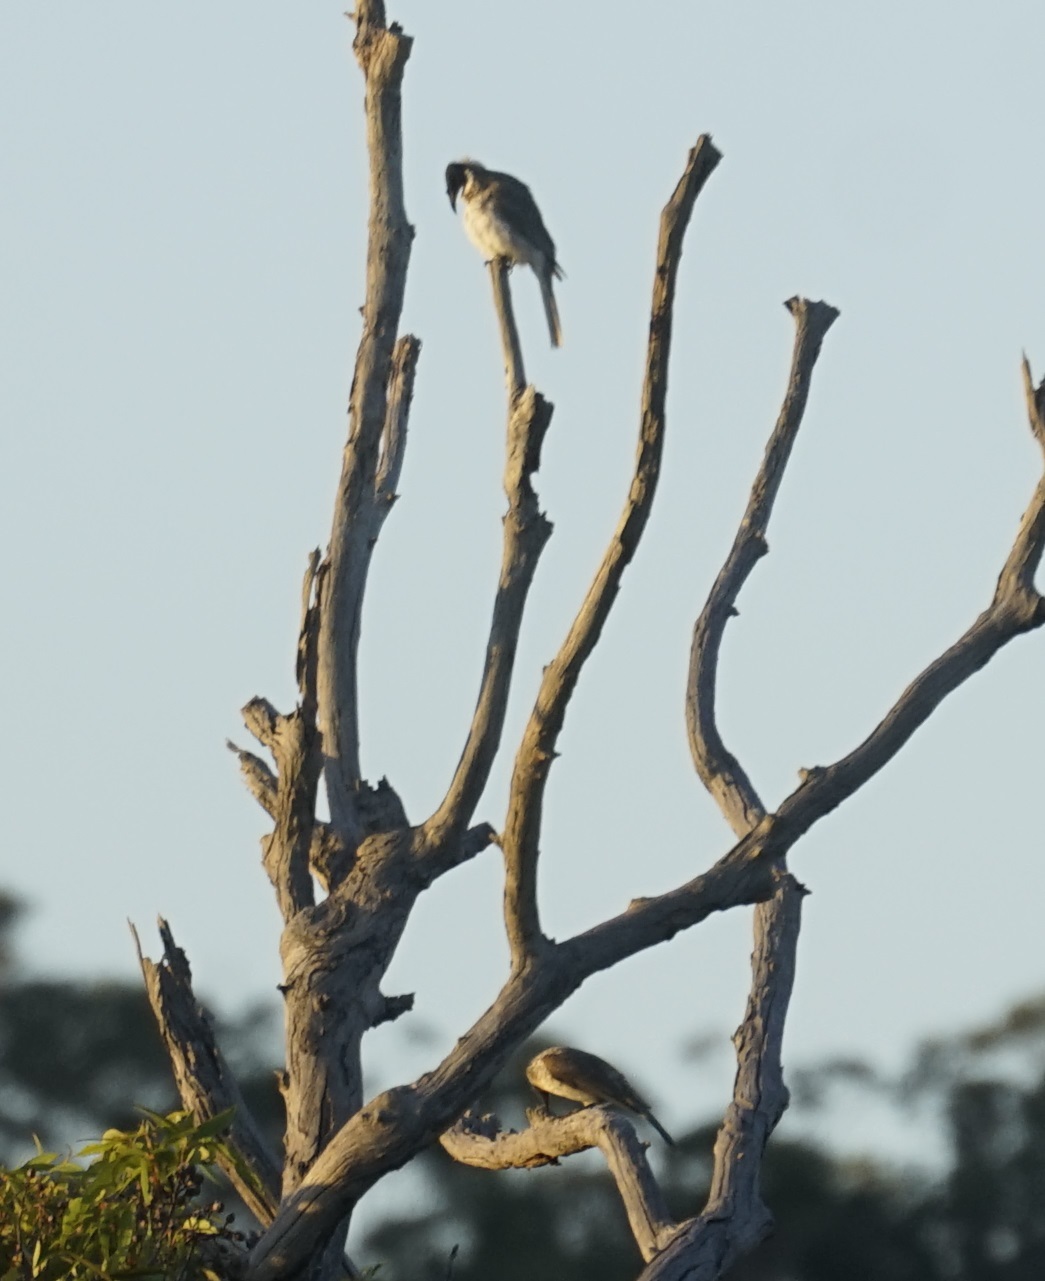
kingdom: Animalia
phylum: Chordata
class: Aves
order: Passeriformes
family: Meliphagidae
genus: Philemon
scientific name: Philemon corniculatus
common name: Noisy friarbird
